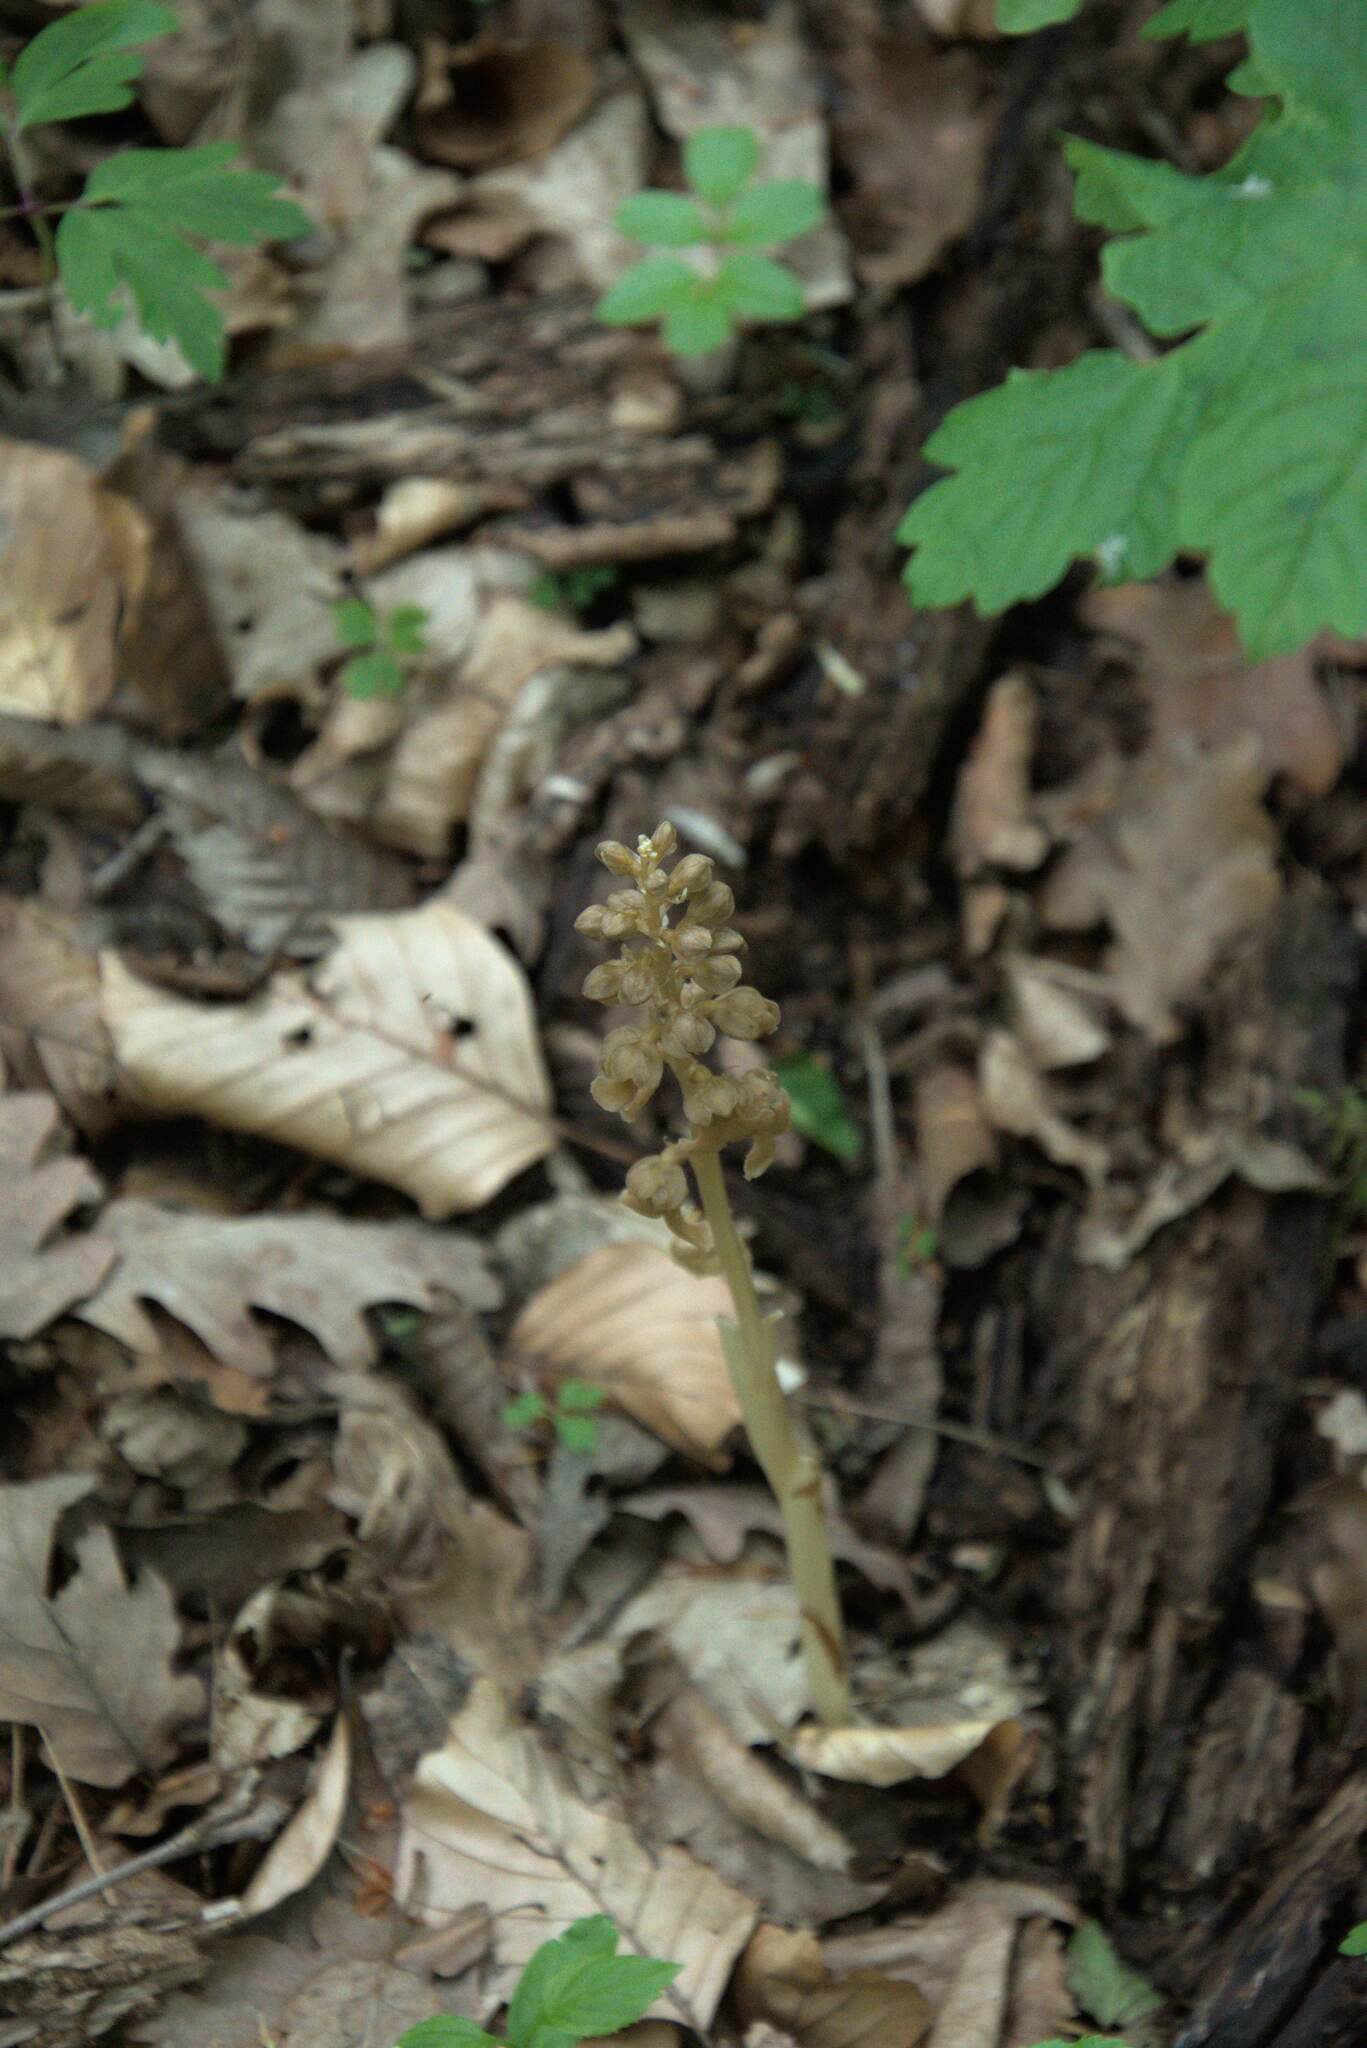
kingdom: Plantae
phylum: Tracheophyta
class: Liliopsida
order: Asparagales
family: Orchidaceae
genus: Neottia
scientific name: Neottia nidus-avis
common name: Bird's-nest orchid
